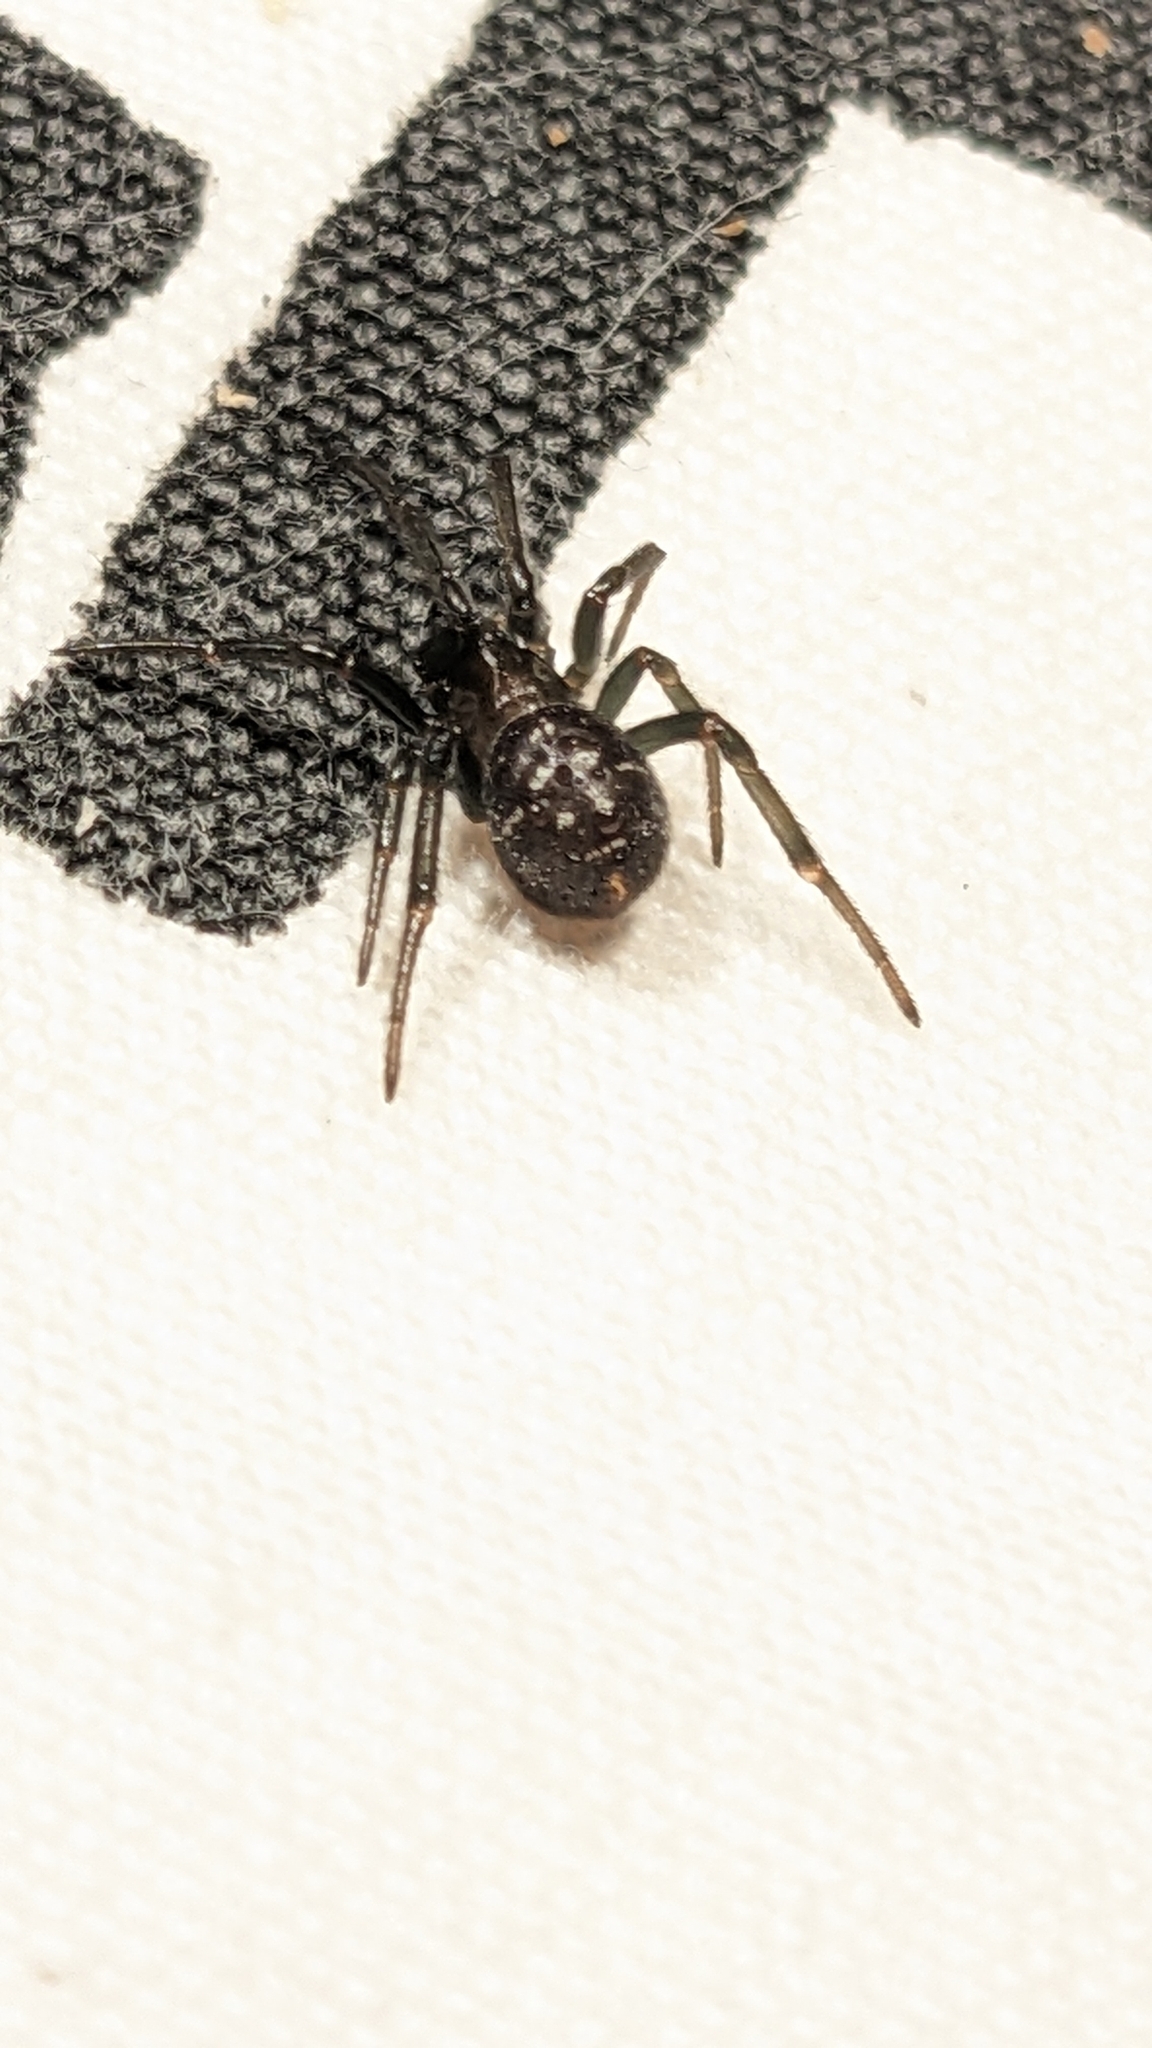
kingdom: Animalia
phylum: Arthropoda
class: Arachnida
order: Araneae
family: Theridiidae
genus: Steatoda
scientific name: Steatoda grossa
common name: False black widow
